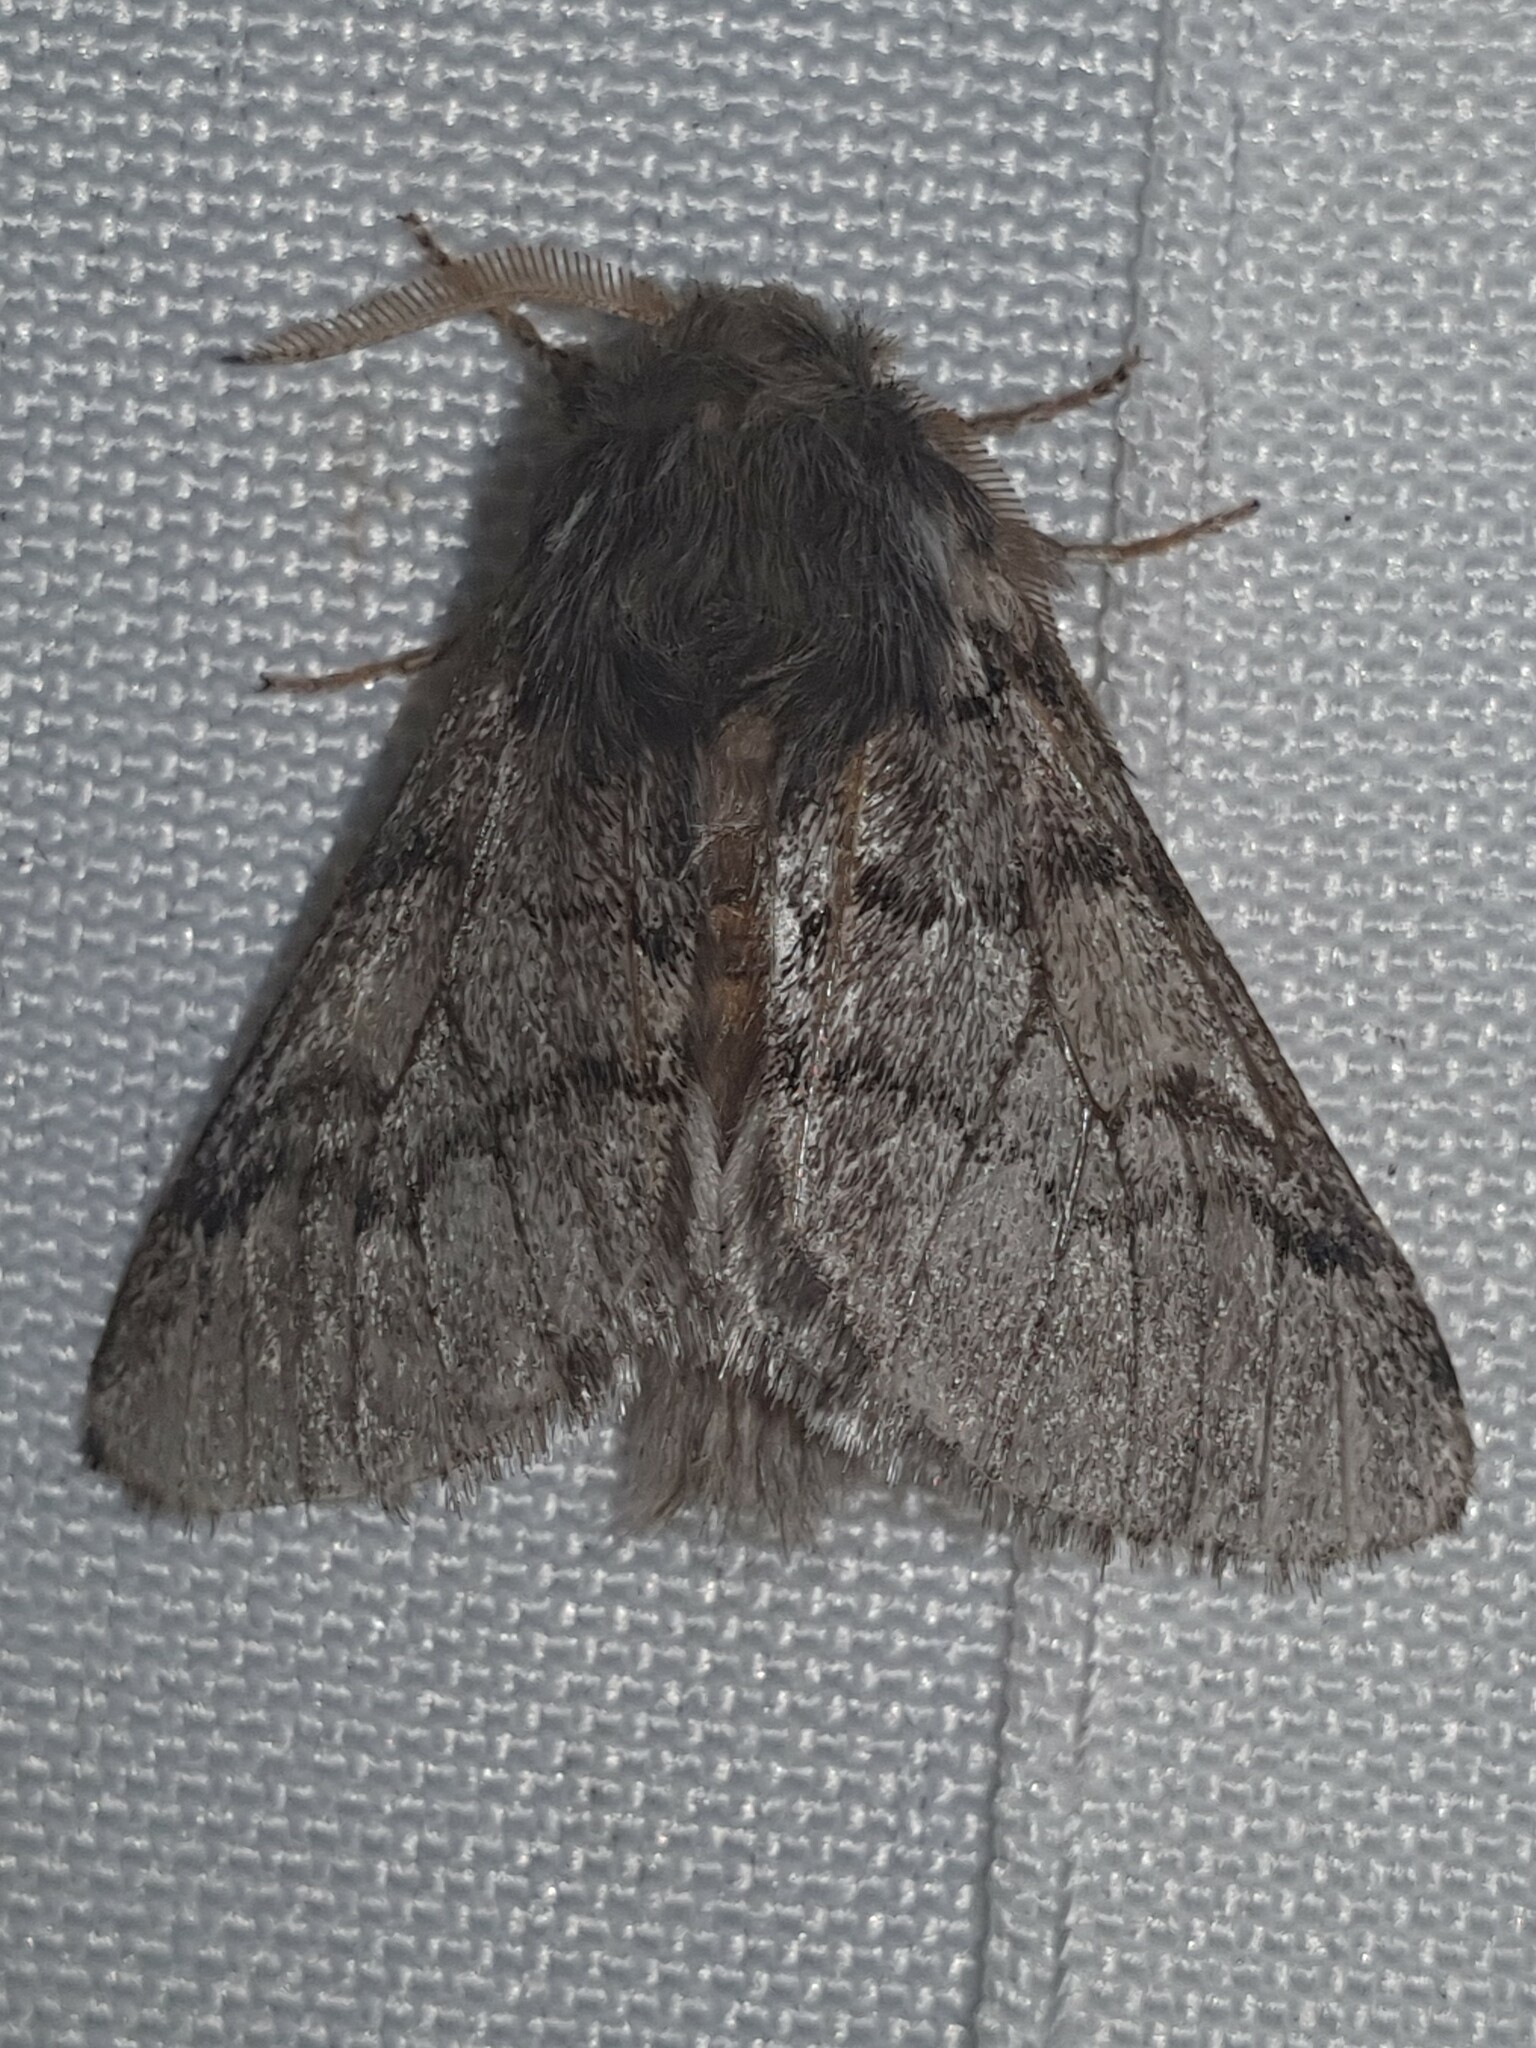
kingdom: Animalia
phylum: Arthropoda
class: Insecta
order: Lepidoptera
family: Notodontidae
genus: Thaumetopoea
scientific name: Thaumetopoea pityocampa
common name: Pine processionary
